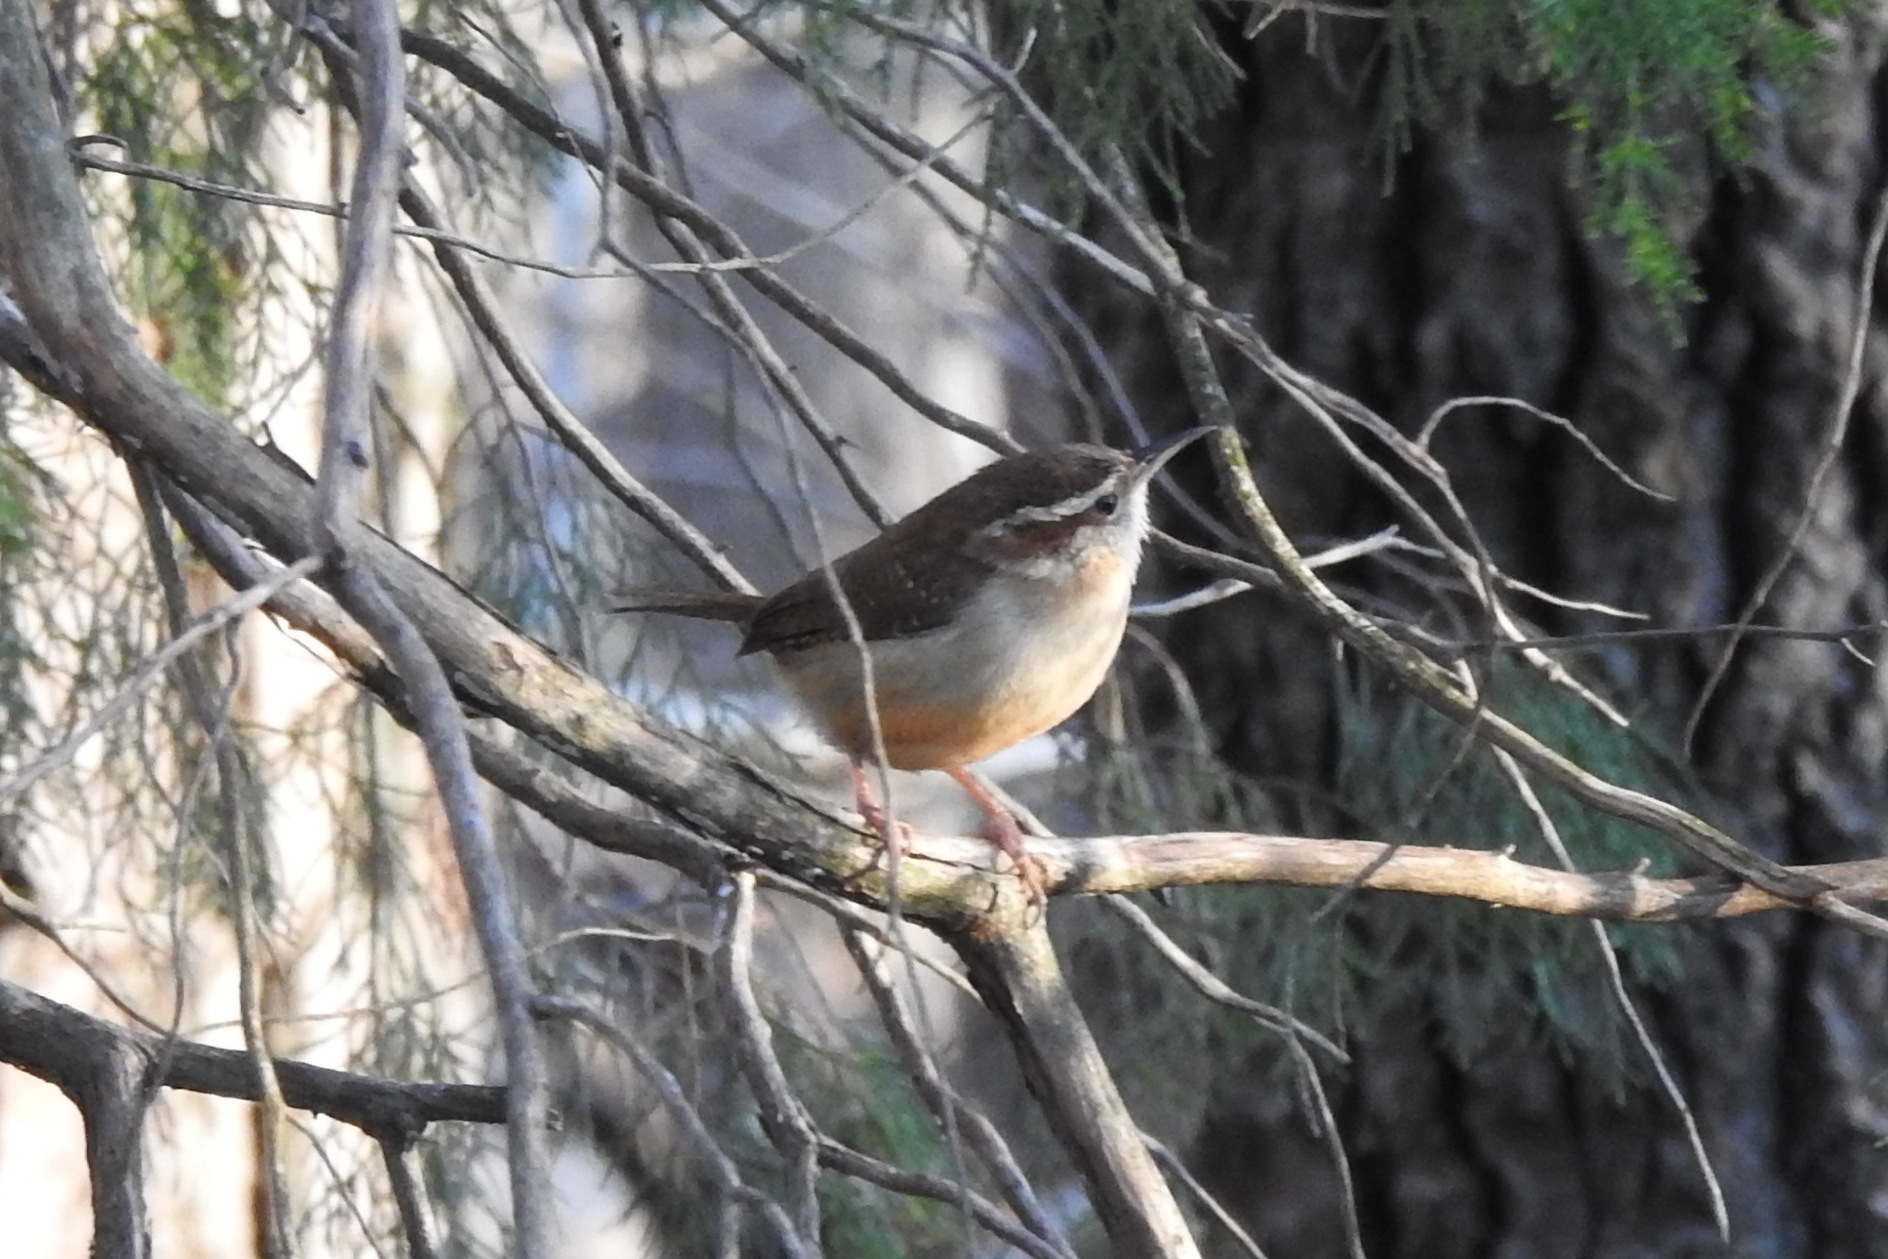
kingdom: Animalia
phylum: Chordata
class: Aves
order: Passeriformes
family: Troglodytidae
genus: Thryothorus
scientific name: Thryothorus ludovicianus
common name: Carolina wren
